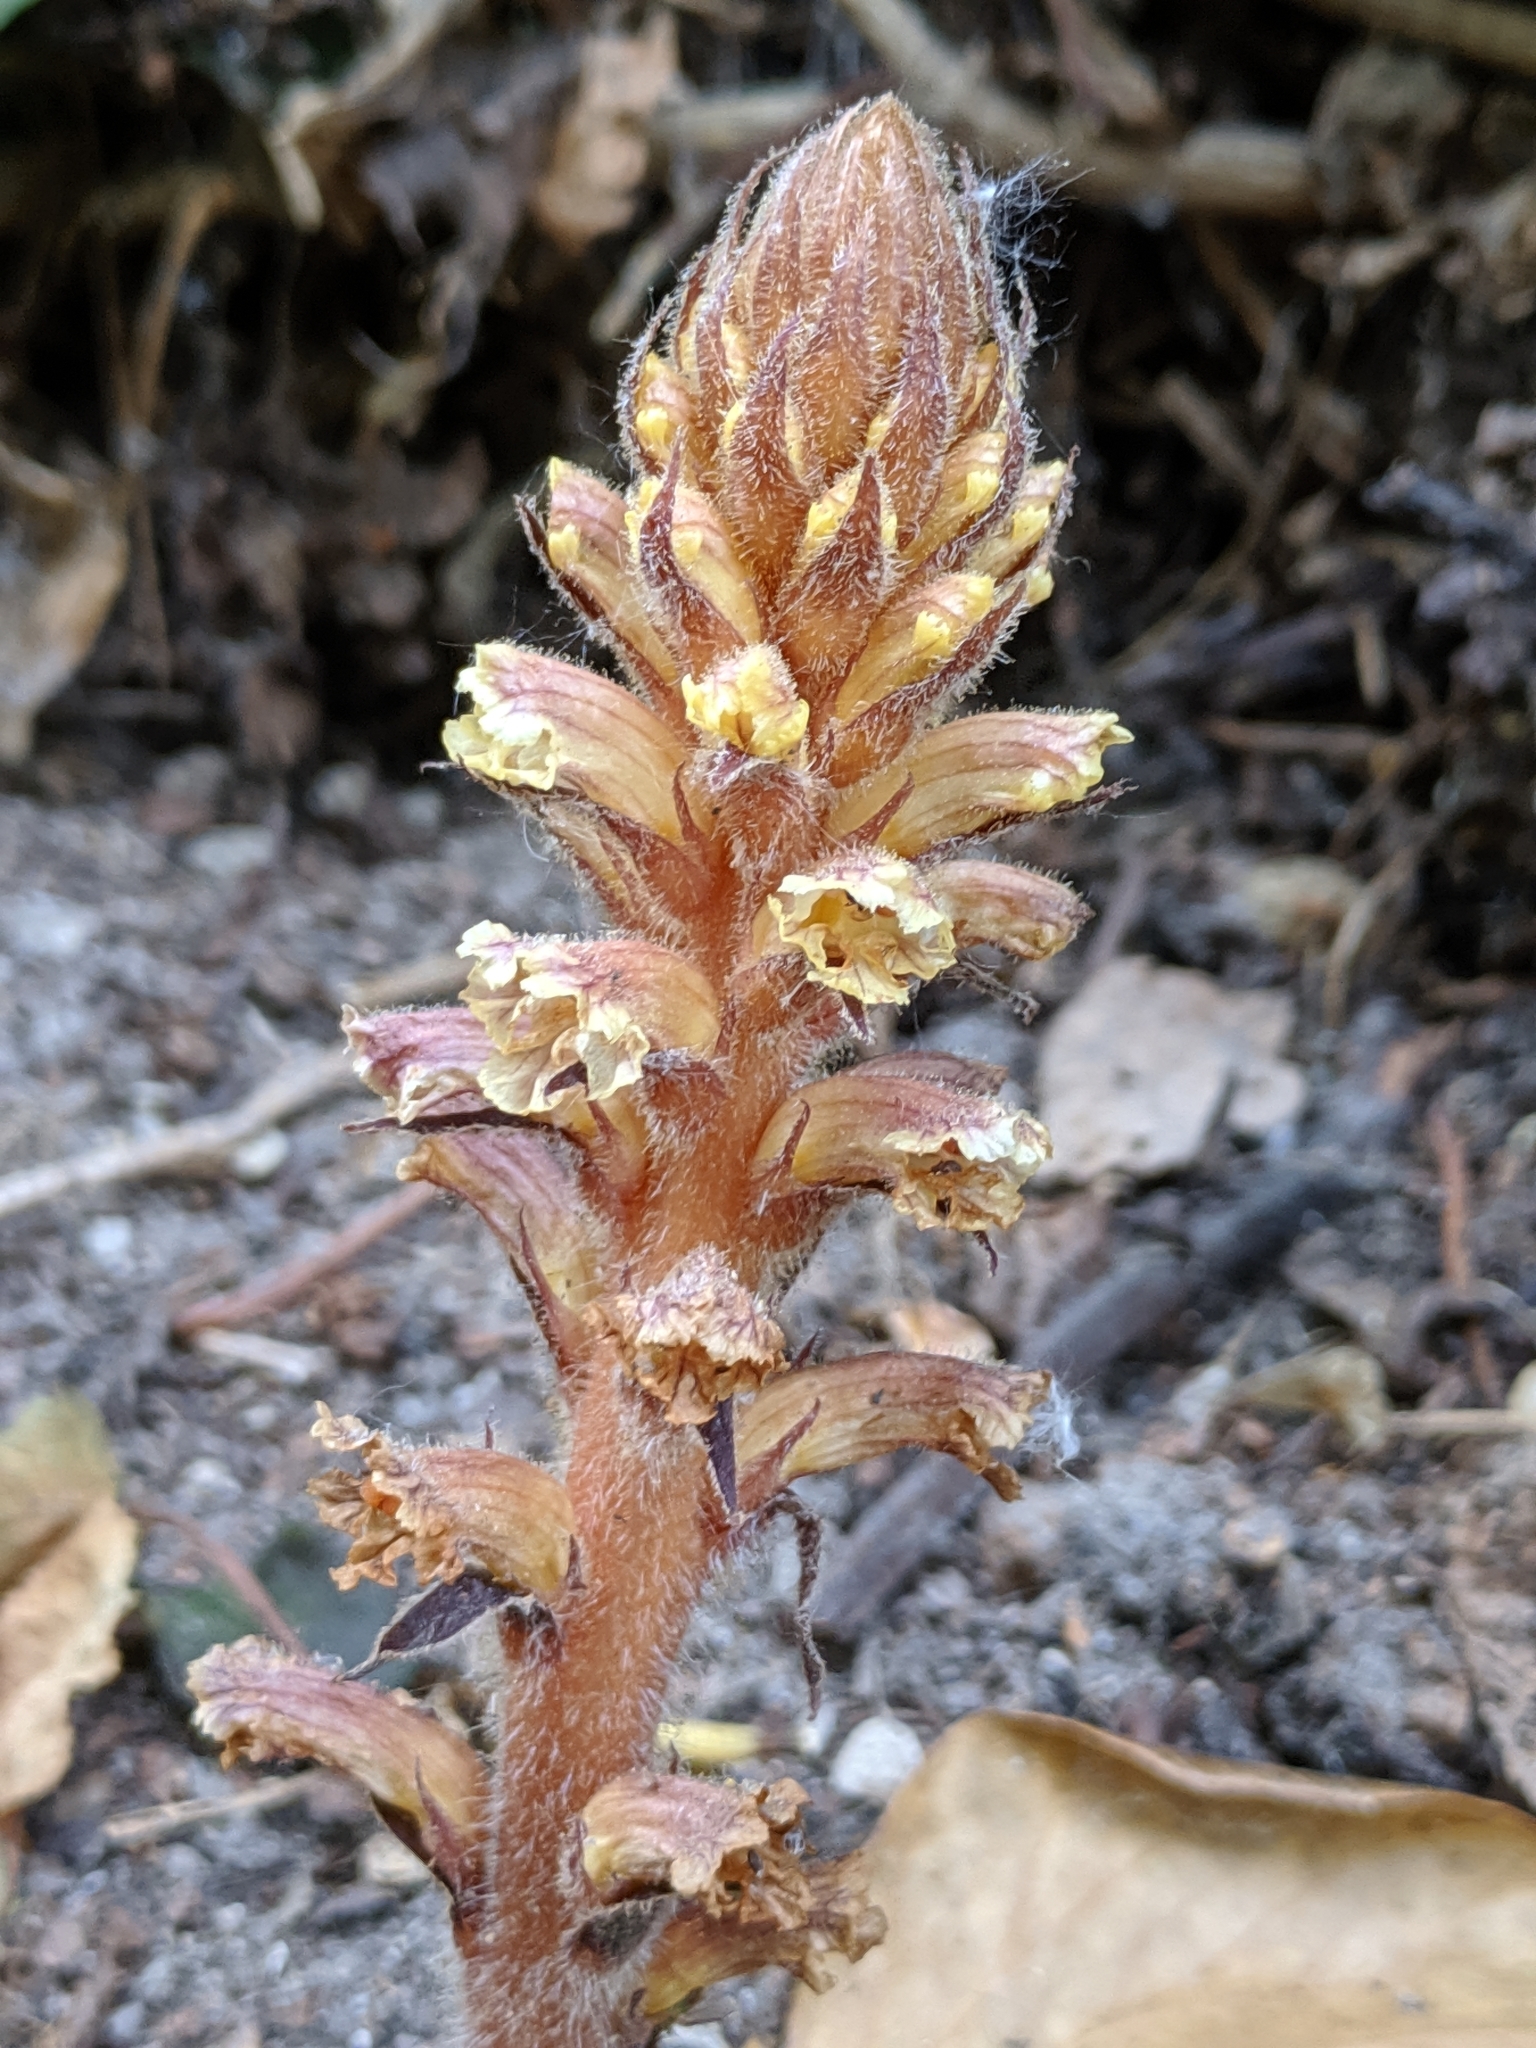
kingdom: Plantae
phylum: Tracheophyta
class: Magnoliopsida
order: Lamiales
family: Orobanchaceae
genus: Orobanche
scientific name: Orobanche hederae
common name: Ivy broomrape
